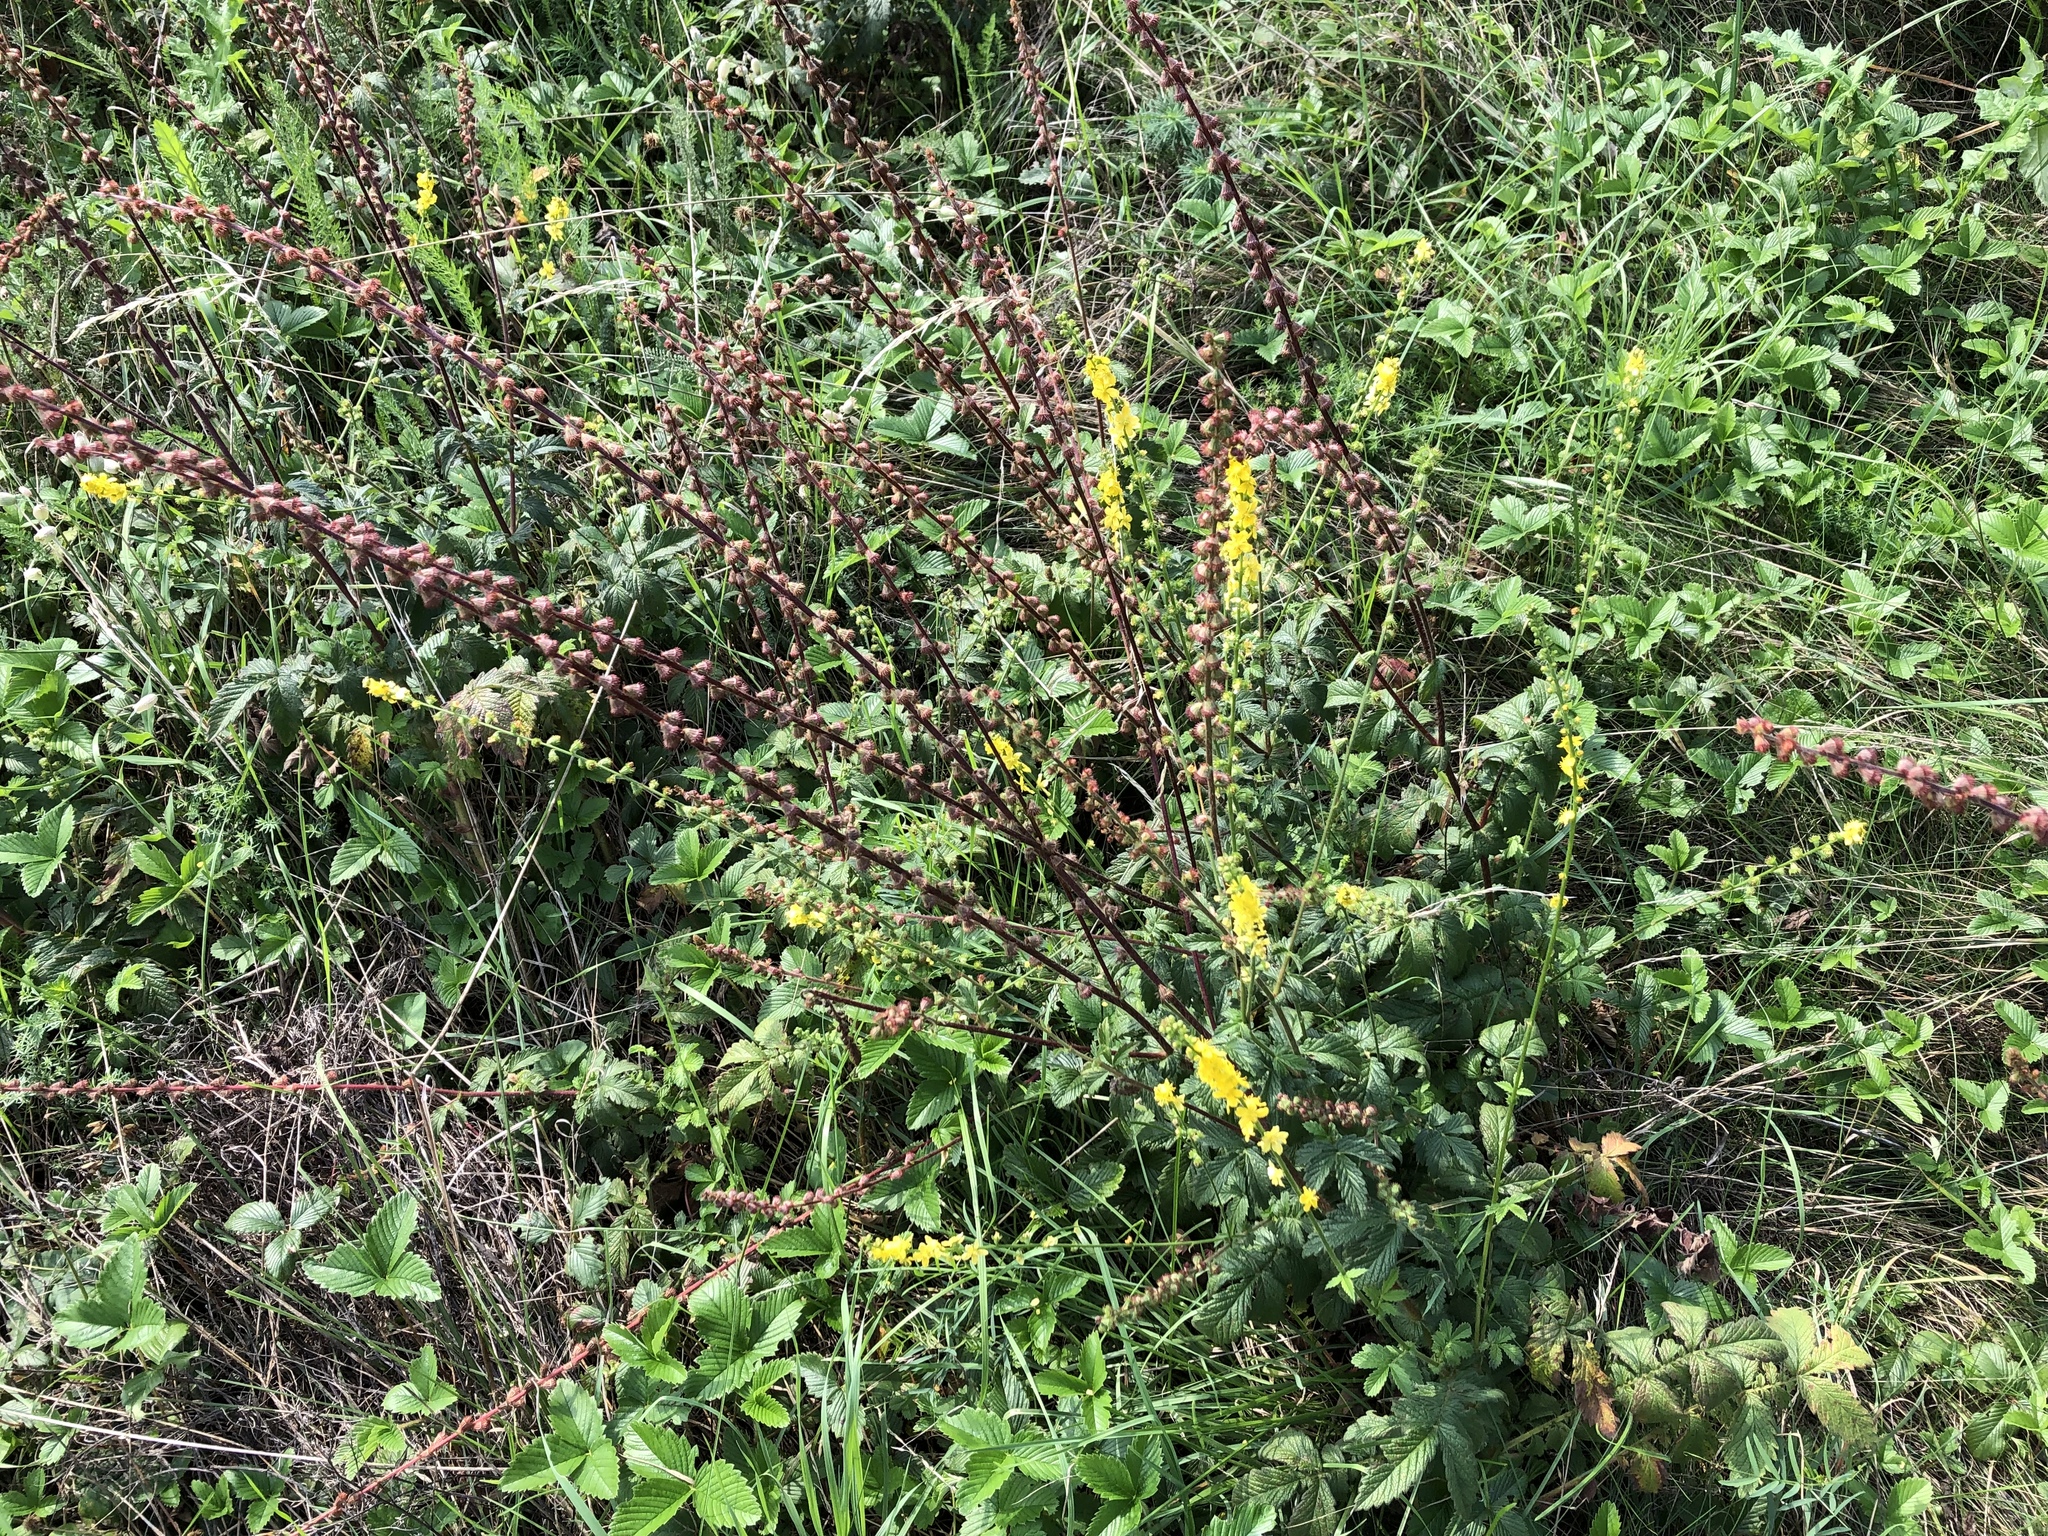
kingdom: Plantae
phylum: Tracheophyta
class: Magnoliopsida
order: Rosales
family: Rosaceae
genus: Agrimonia
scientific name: Agrimonia eupatoria
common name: Agrimony
